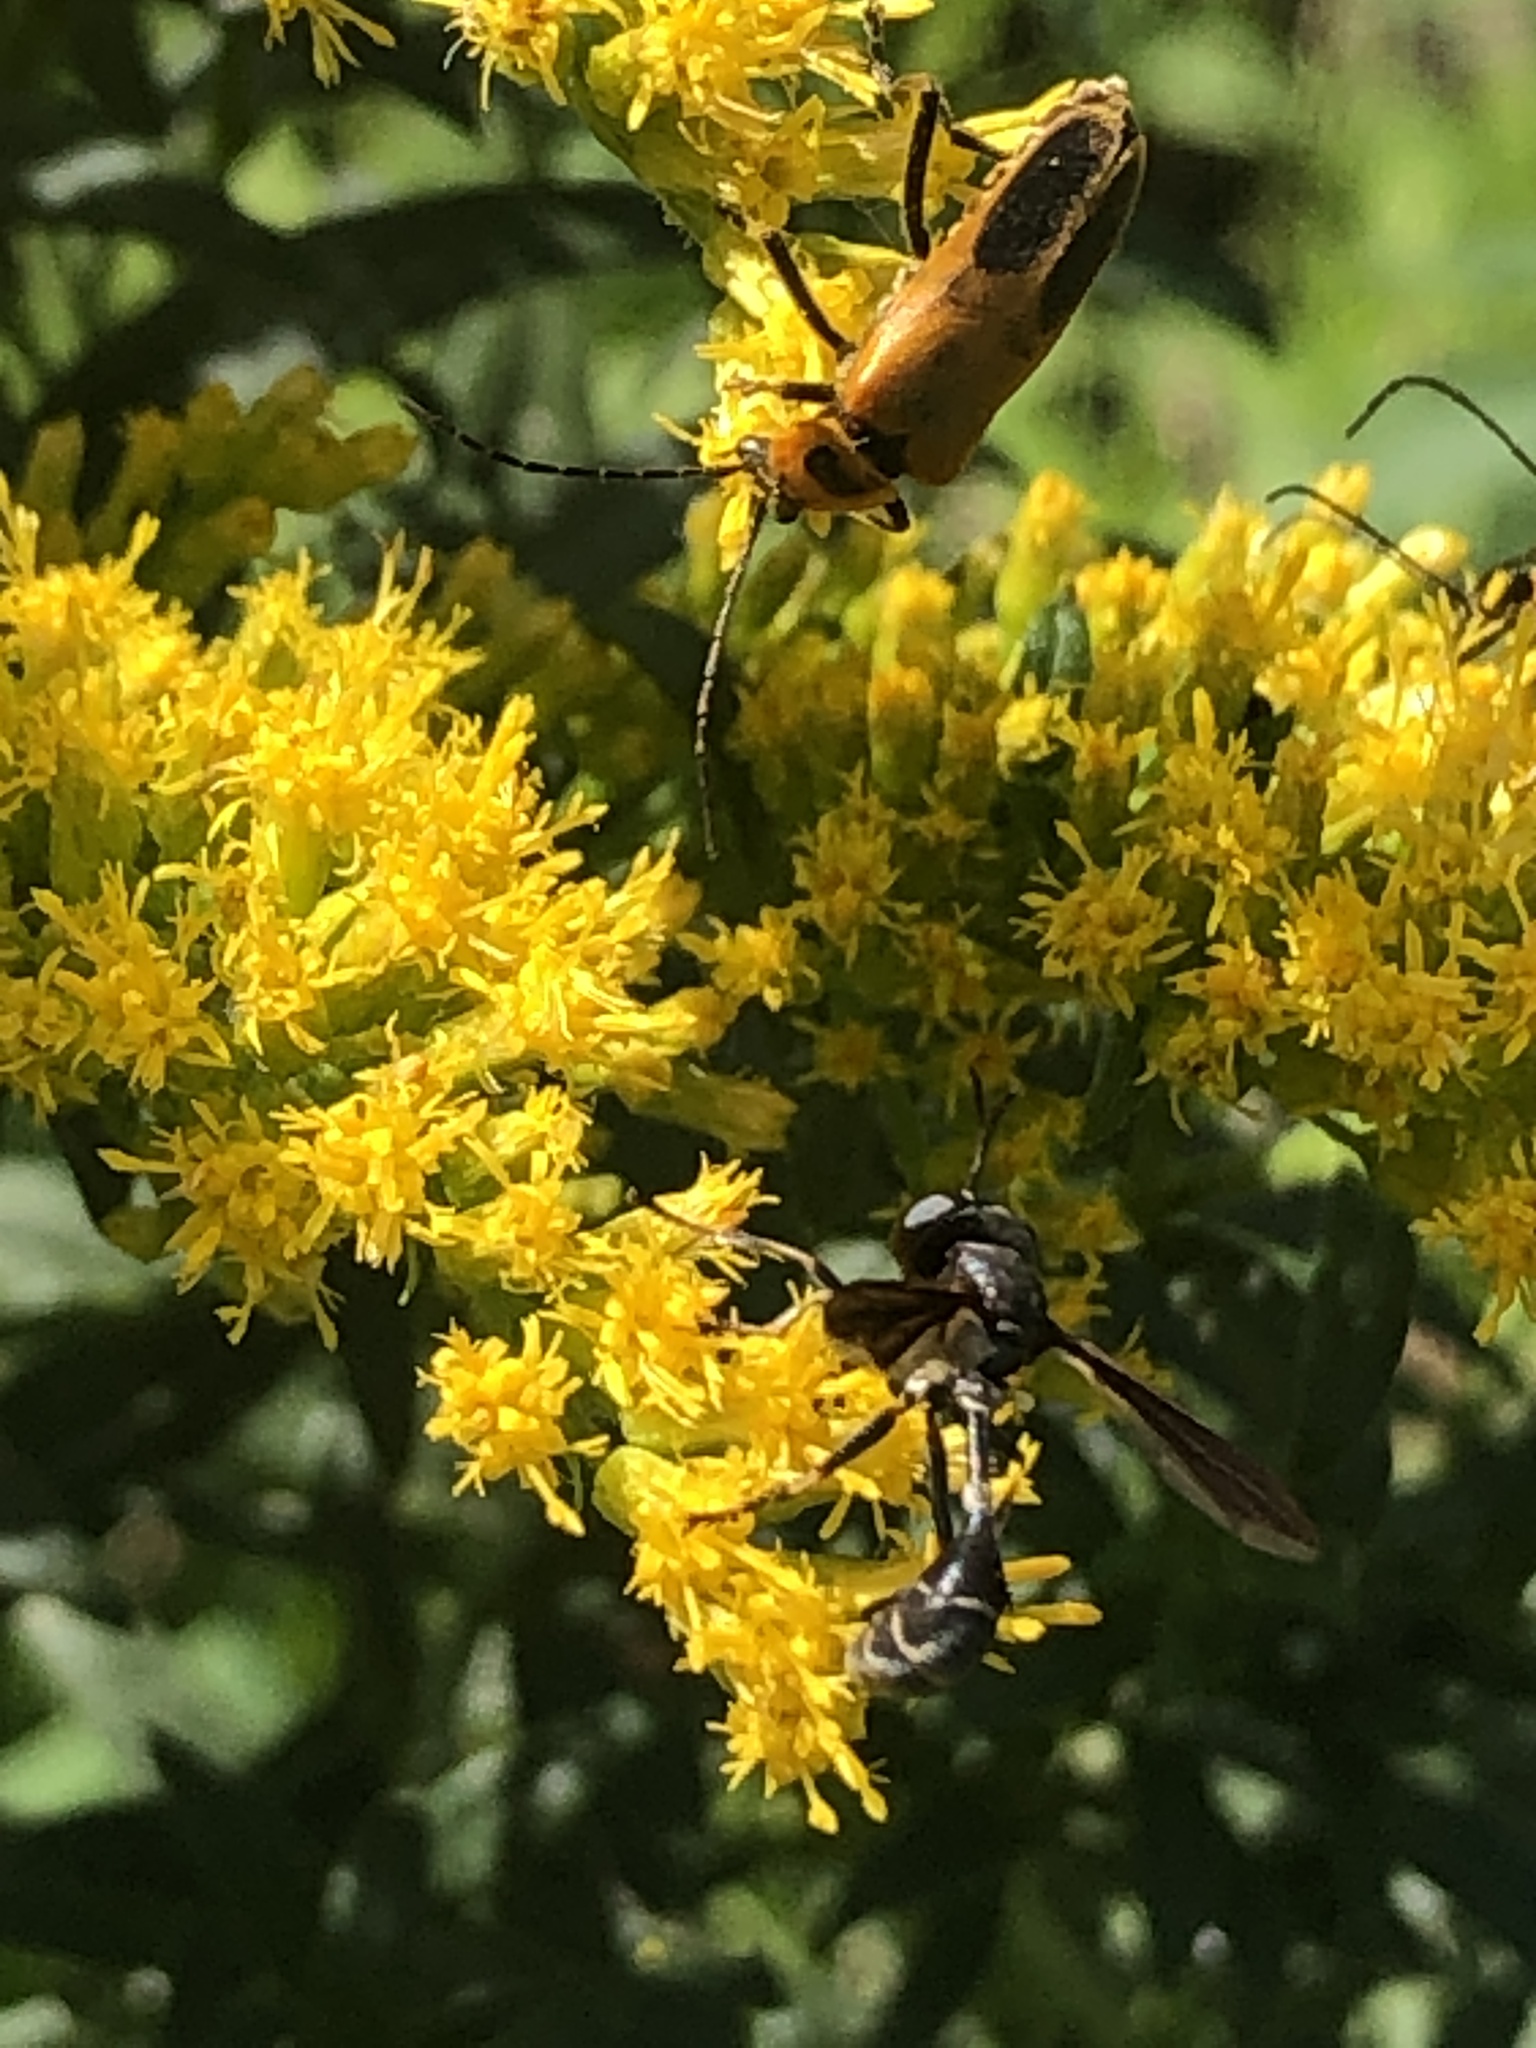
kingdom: Animalia
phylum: Arthropoda
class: Insecta
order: Diptera
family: Conopidae
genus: Physocephala
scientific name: Physocephala tibialis
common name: Common eastern physocephala
